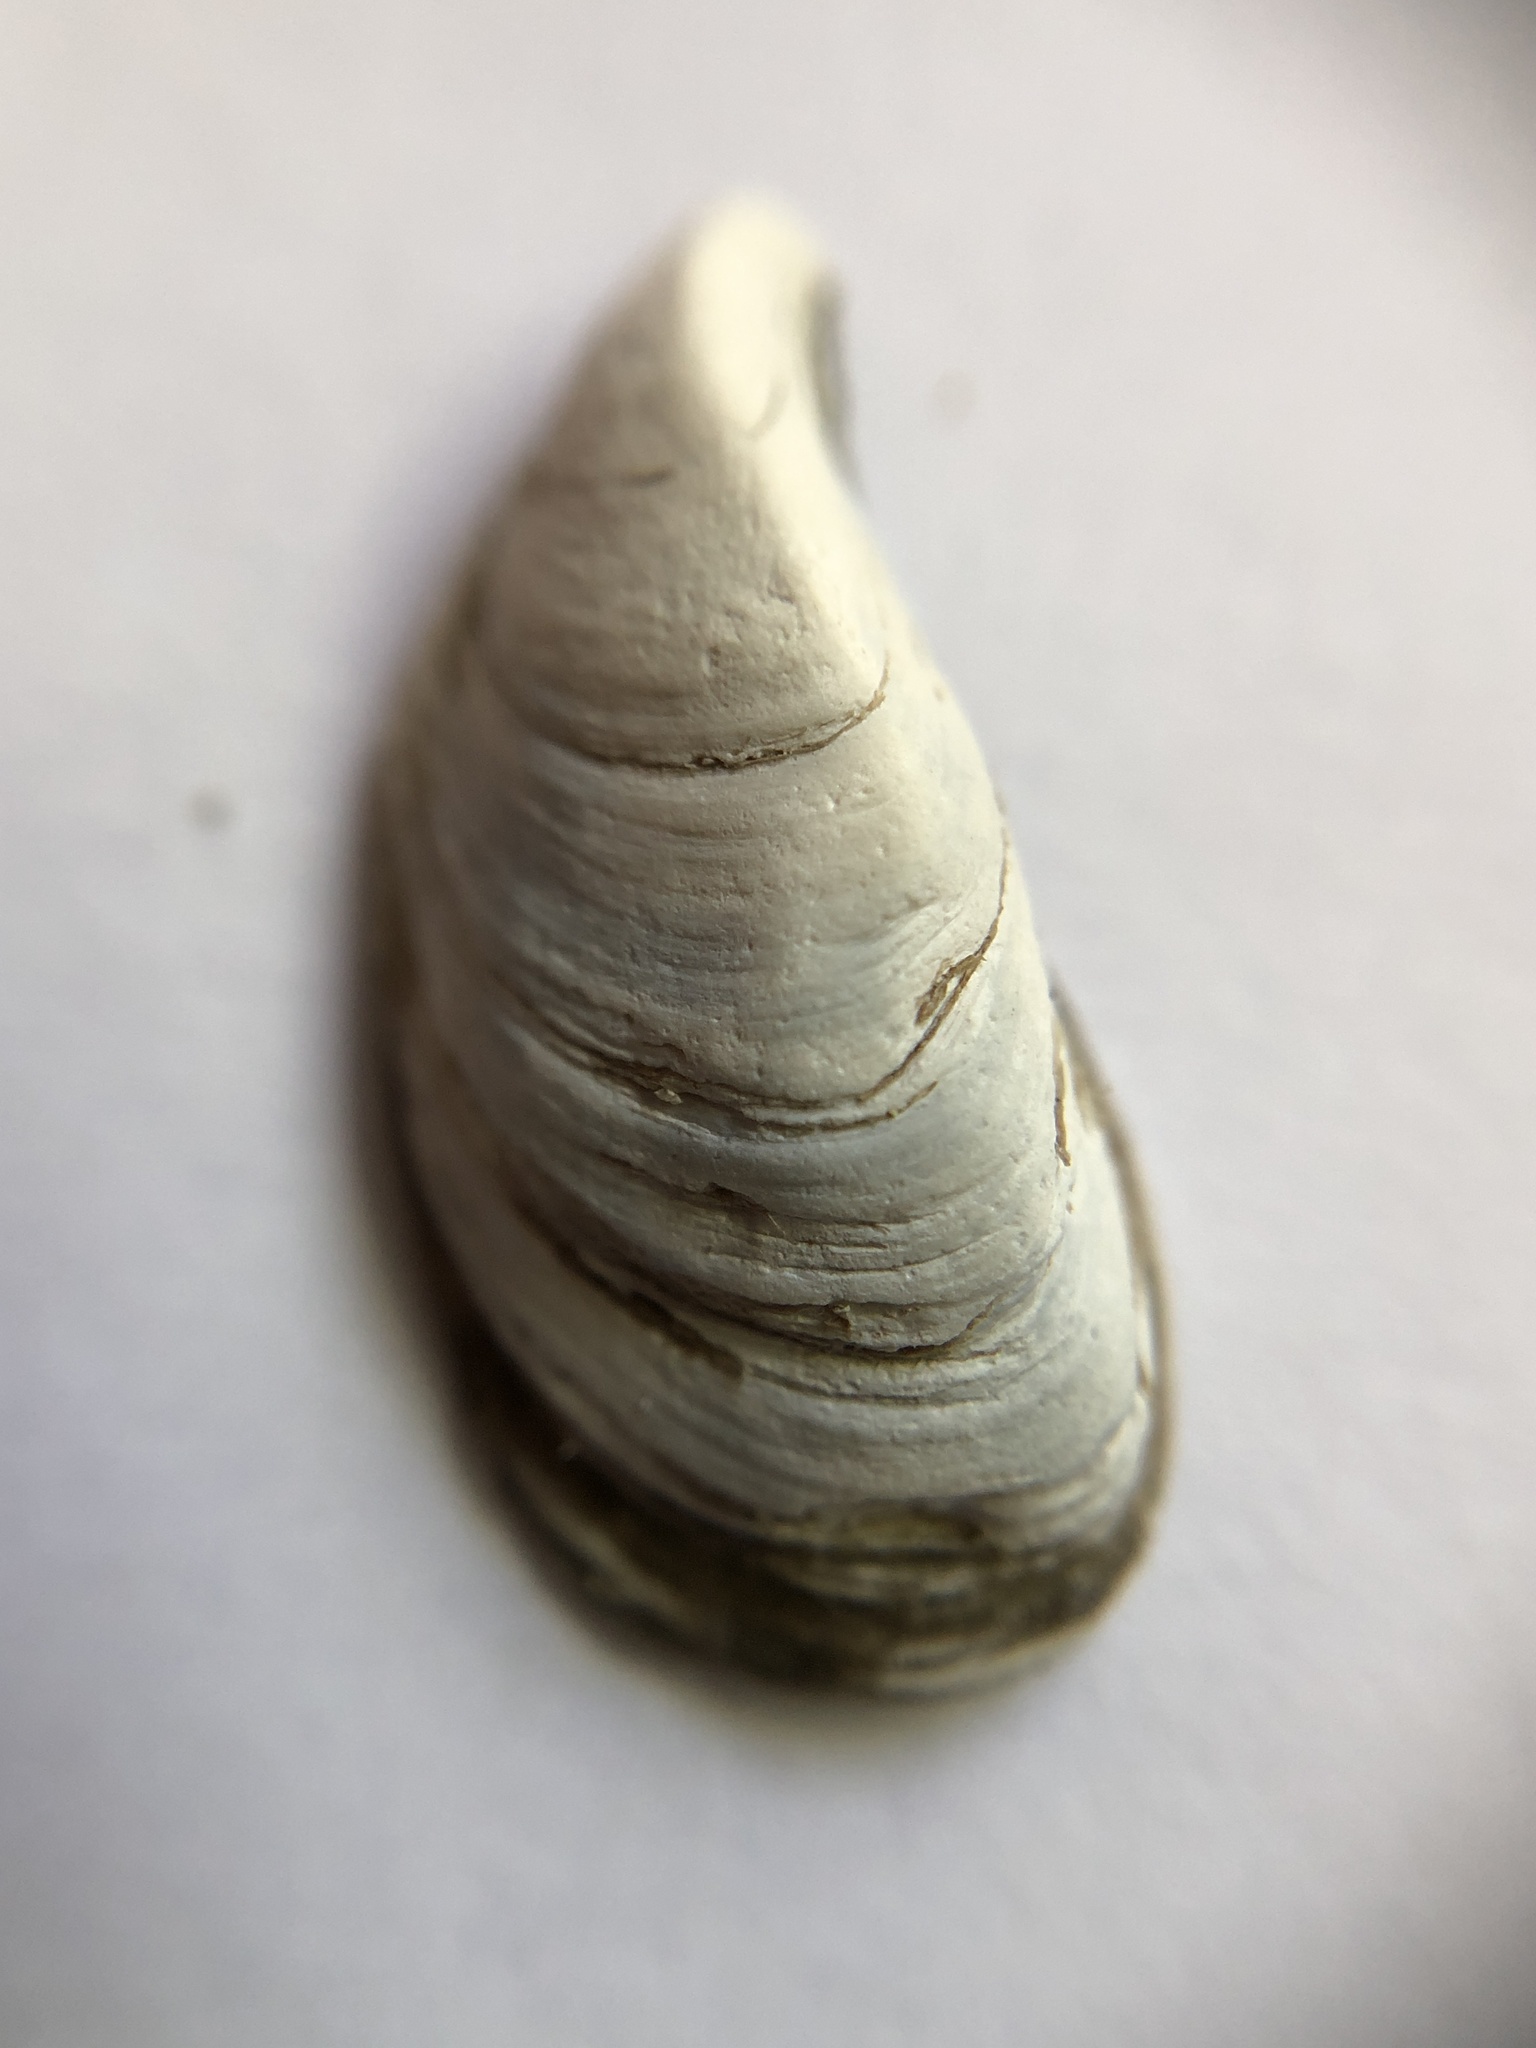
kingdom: Animalia
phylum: Mollusca
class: Bivalvia
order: Myida
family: Dreissenidae
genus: Dreissena
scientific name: Dreissena bugensis
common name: Quagga mussel
